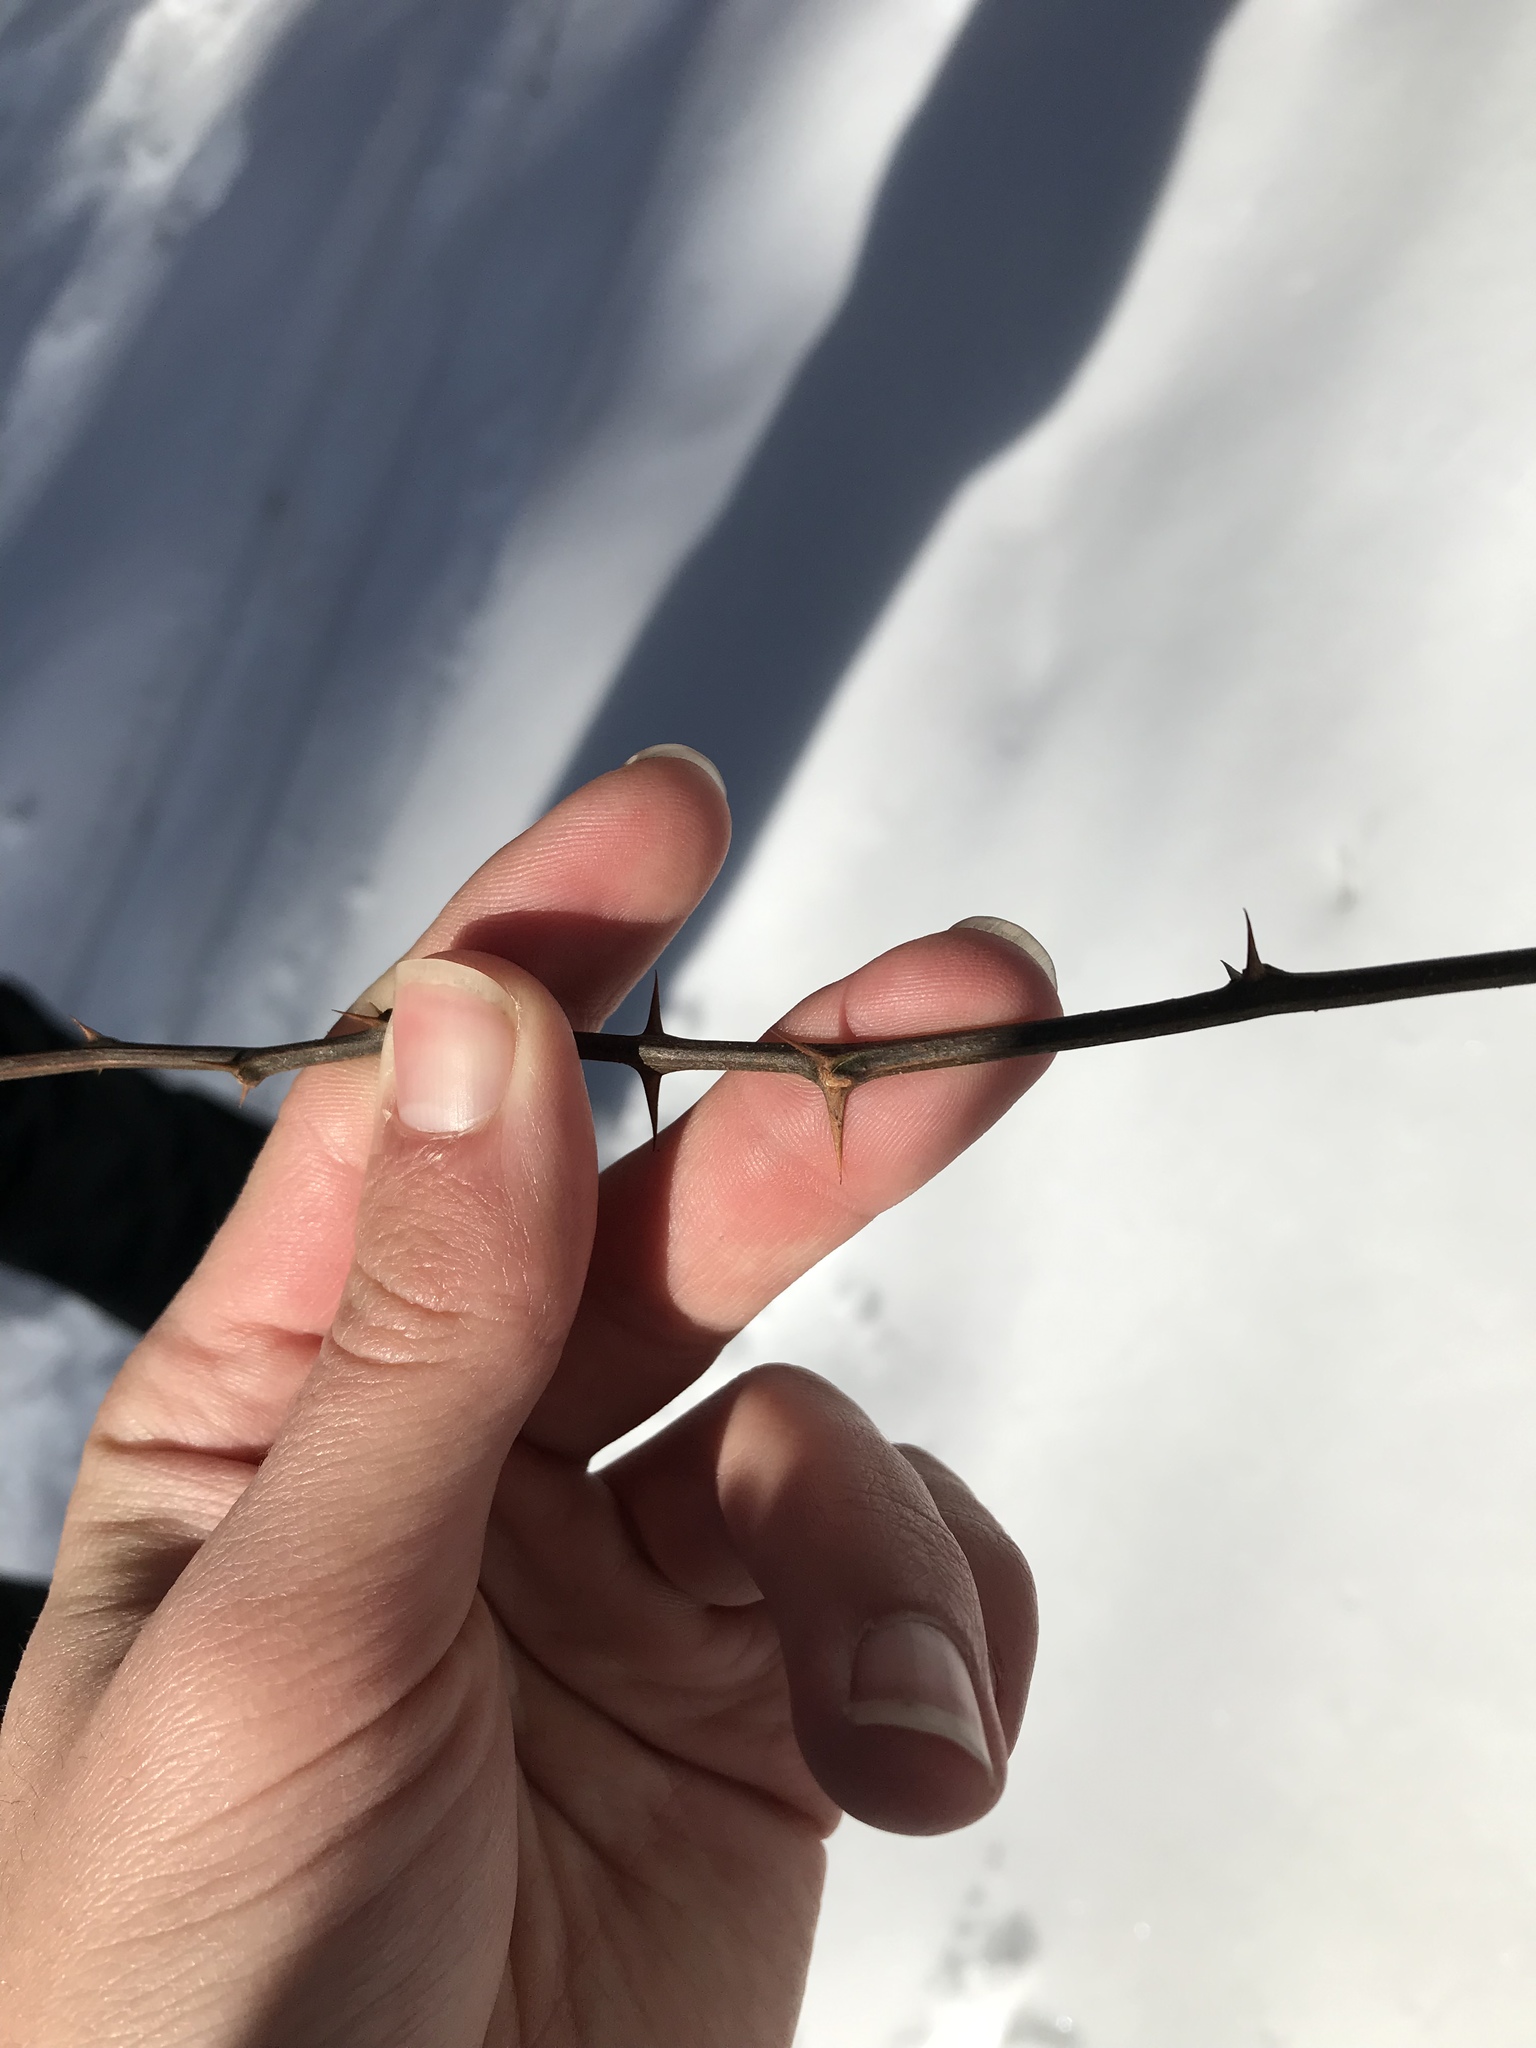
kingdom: Plantae
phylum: Tracheophyta
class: Magnoliopsida
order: Sapindales
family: Rutaceae
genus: Zanthoxylum
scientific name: Zanthoxylum americanum
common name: Northern prickly-ash
